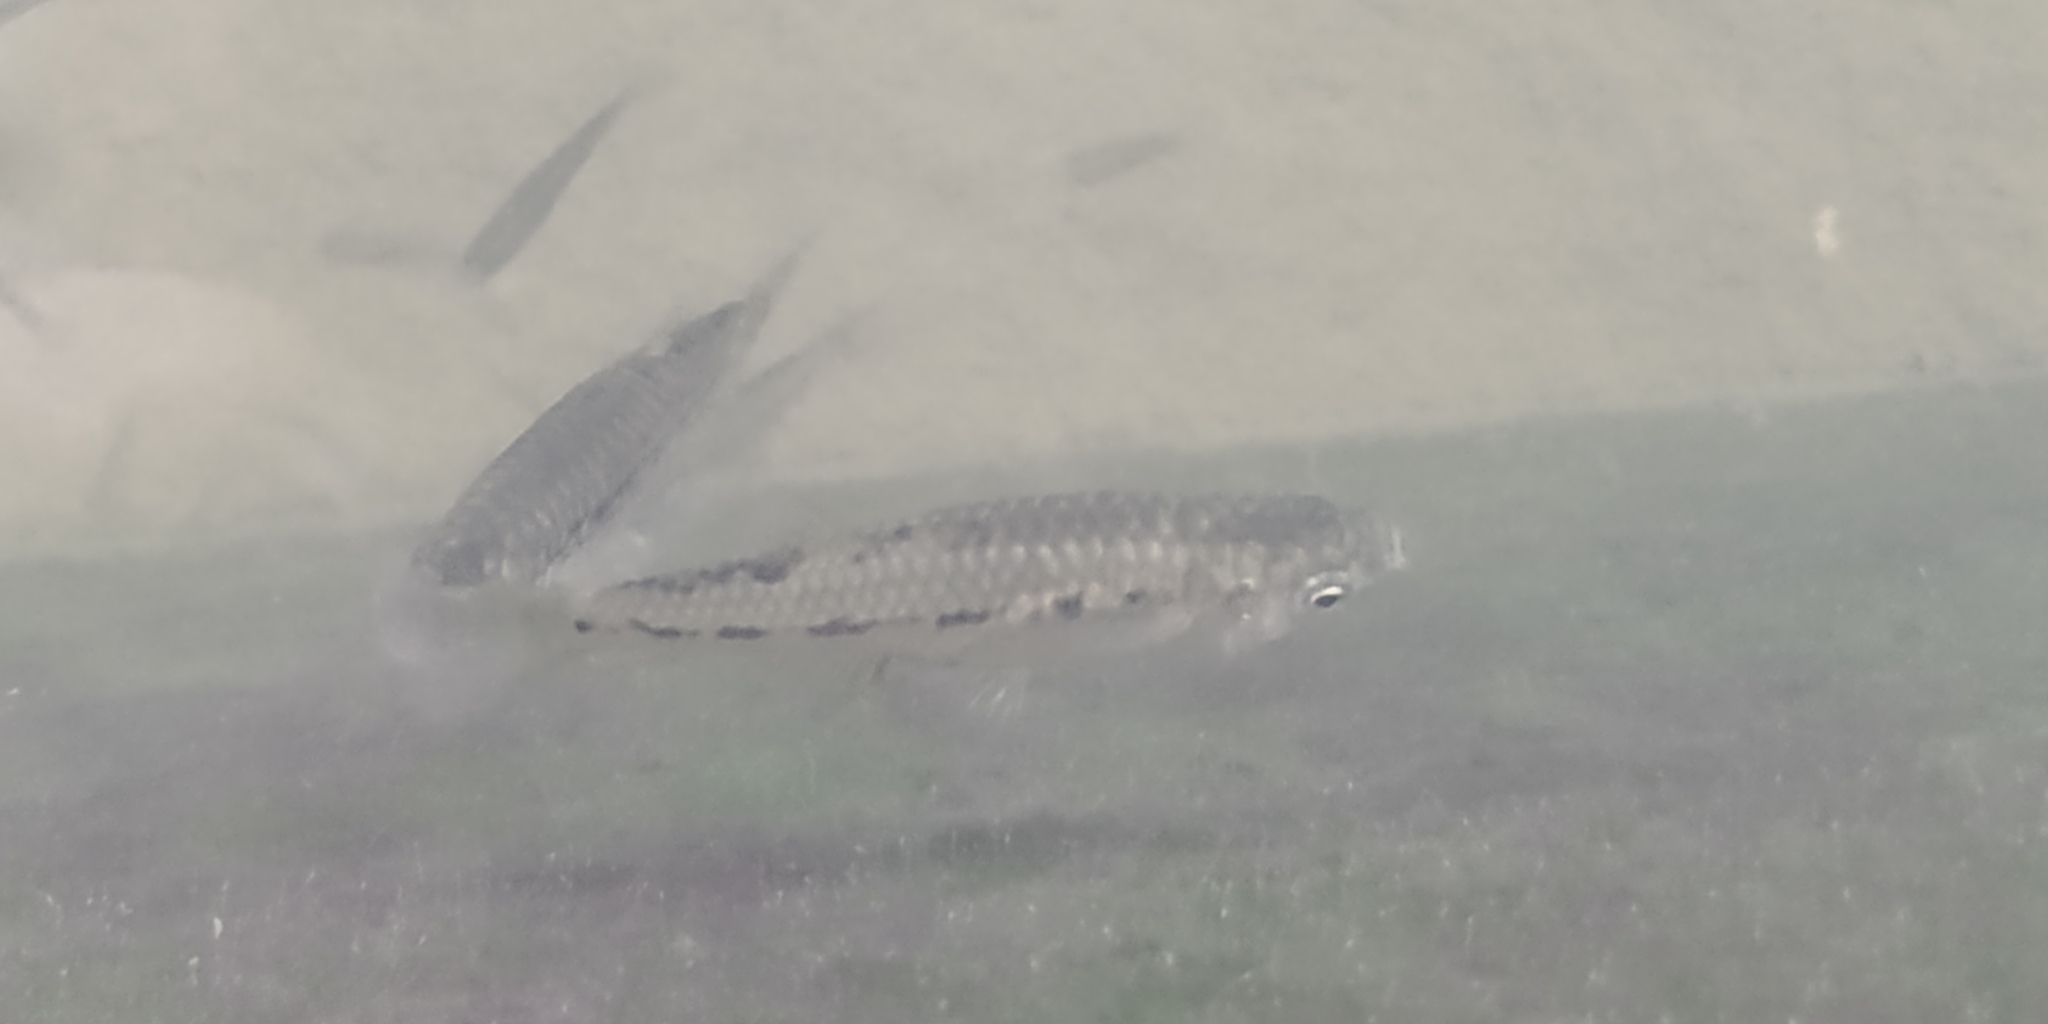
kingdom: Animalia
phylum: Chordata
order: Cyprinodontiformes
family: Poeciliidae
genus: Poeciliopsis
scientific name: Poeciliopsis gracilis
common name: Porthole livebearer
